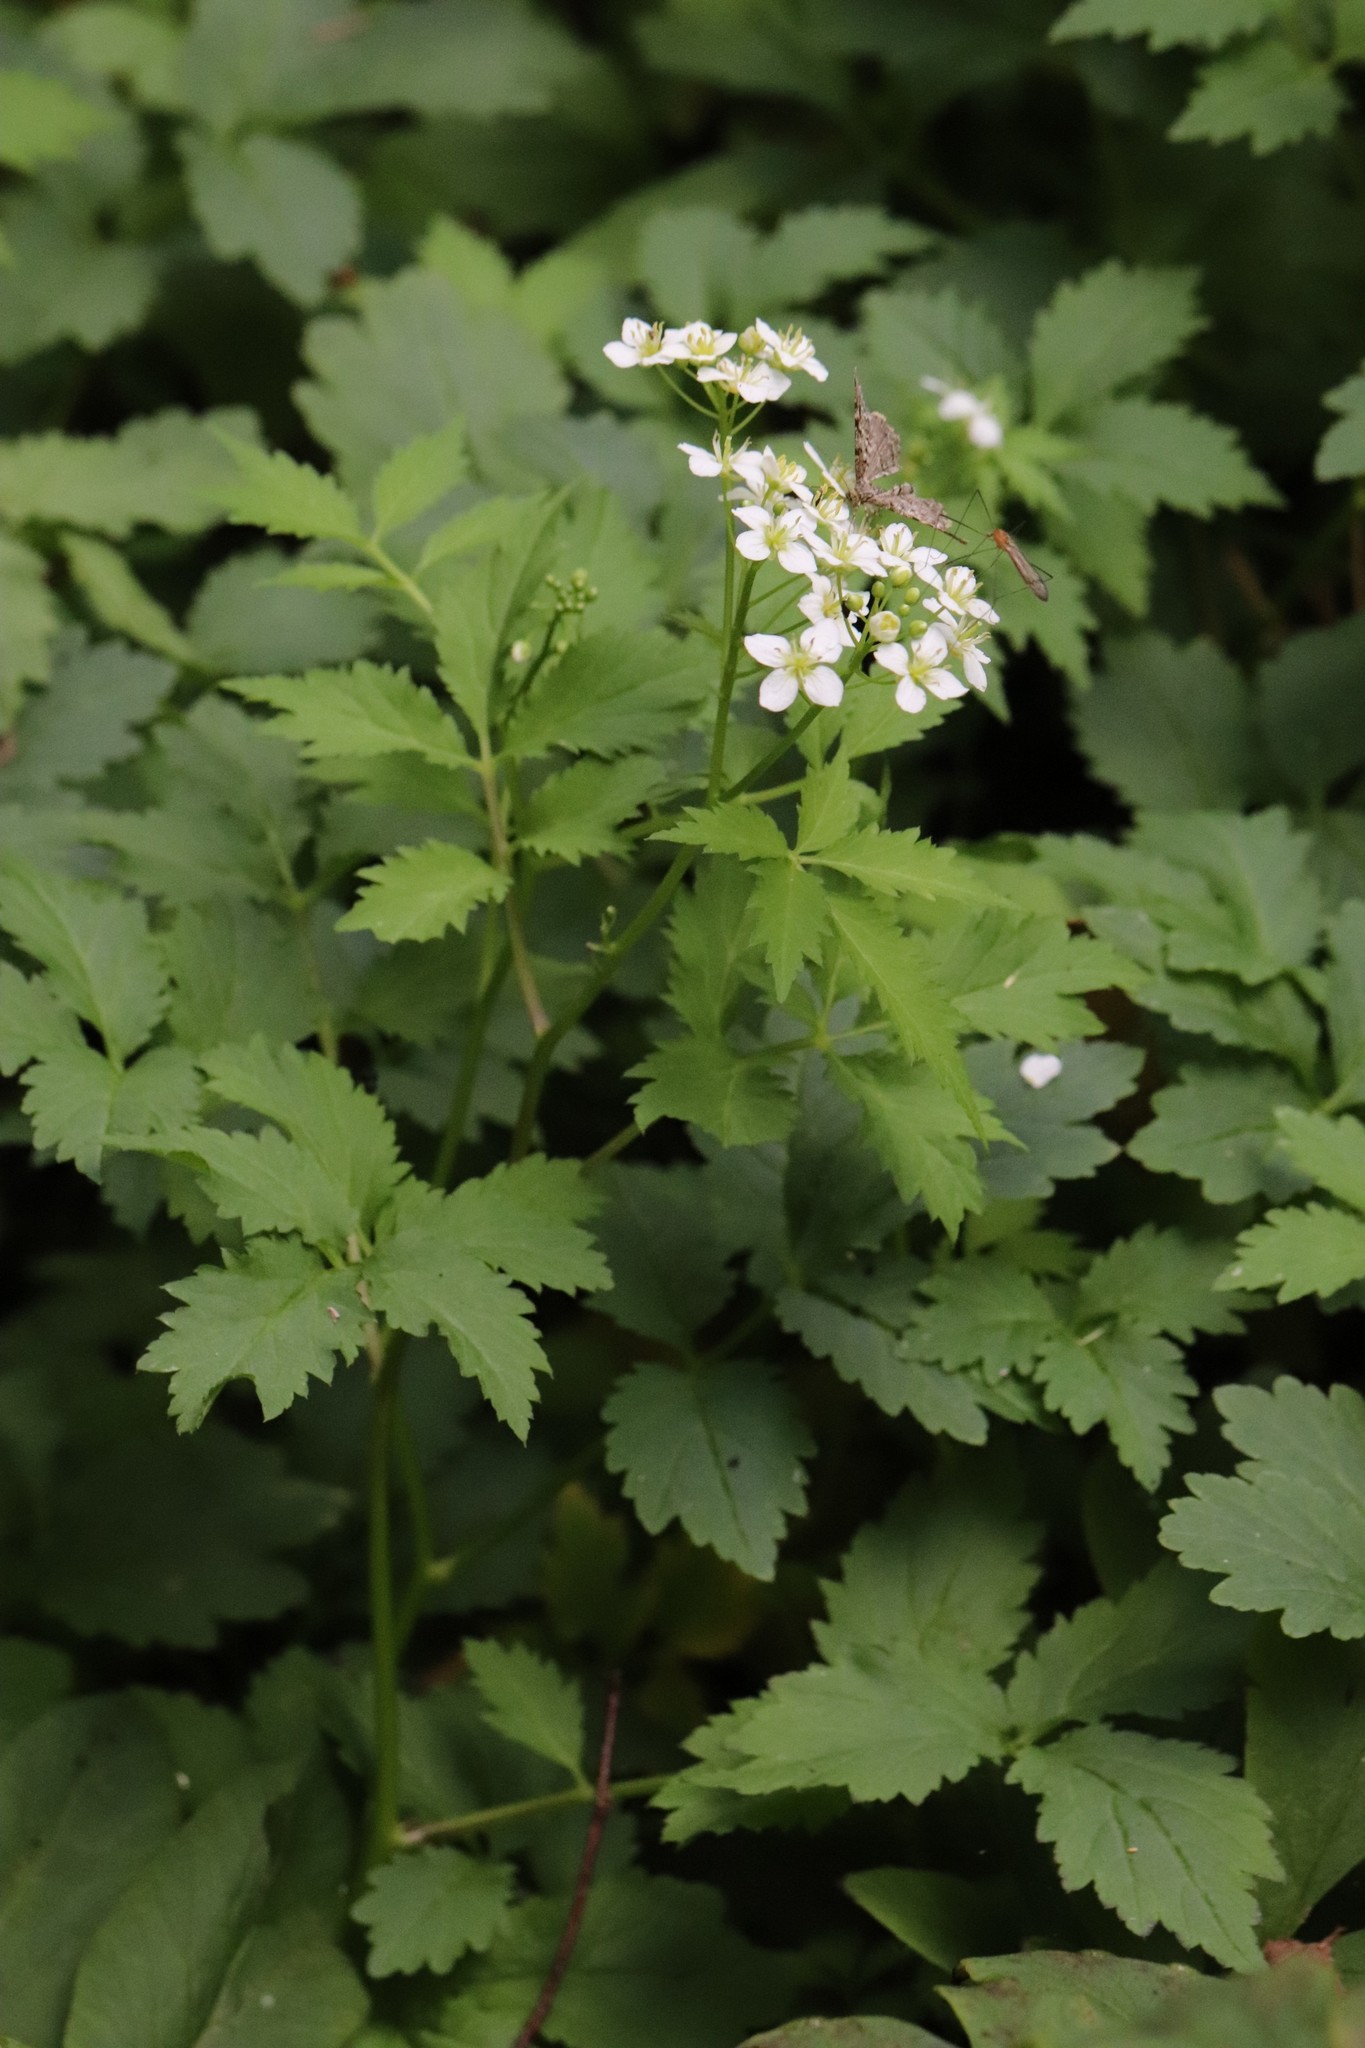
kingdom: Plantae
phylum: Tracheophyta
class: Magnoliopsida
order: Brassicales
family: Brassicaceae
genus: Cardamine
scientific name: Cardamine macrophylla
